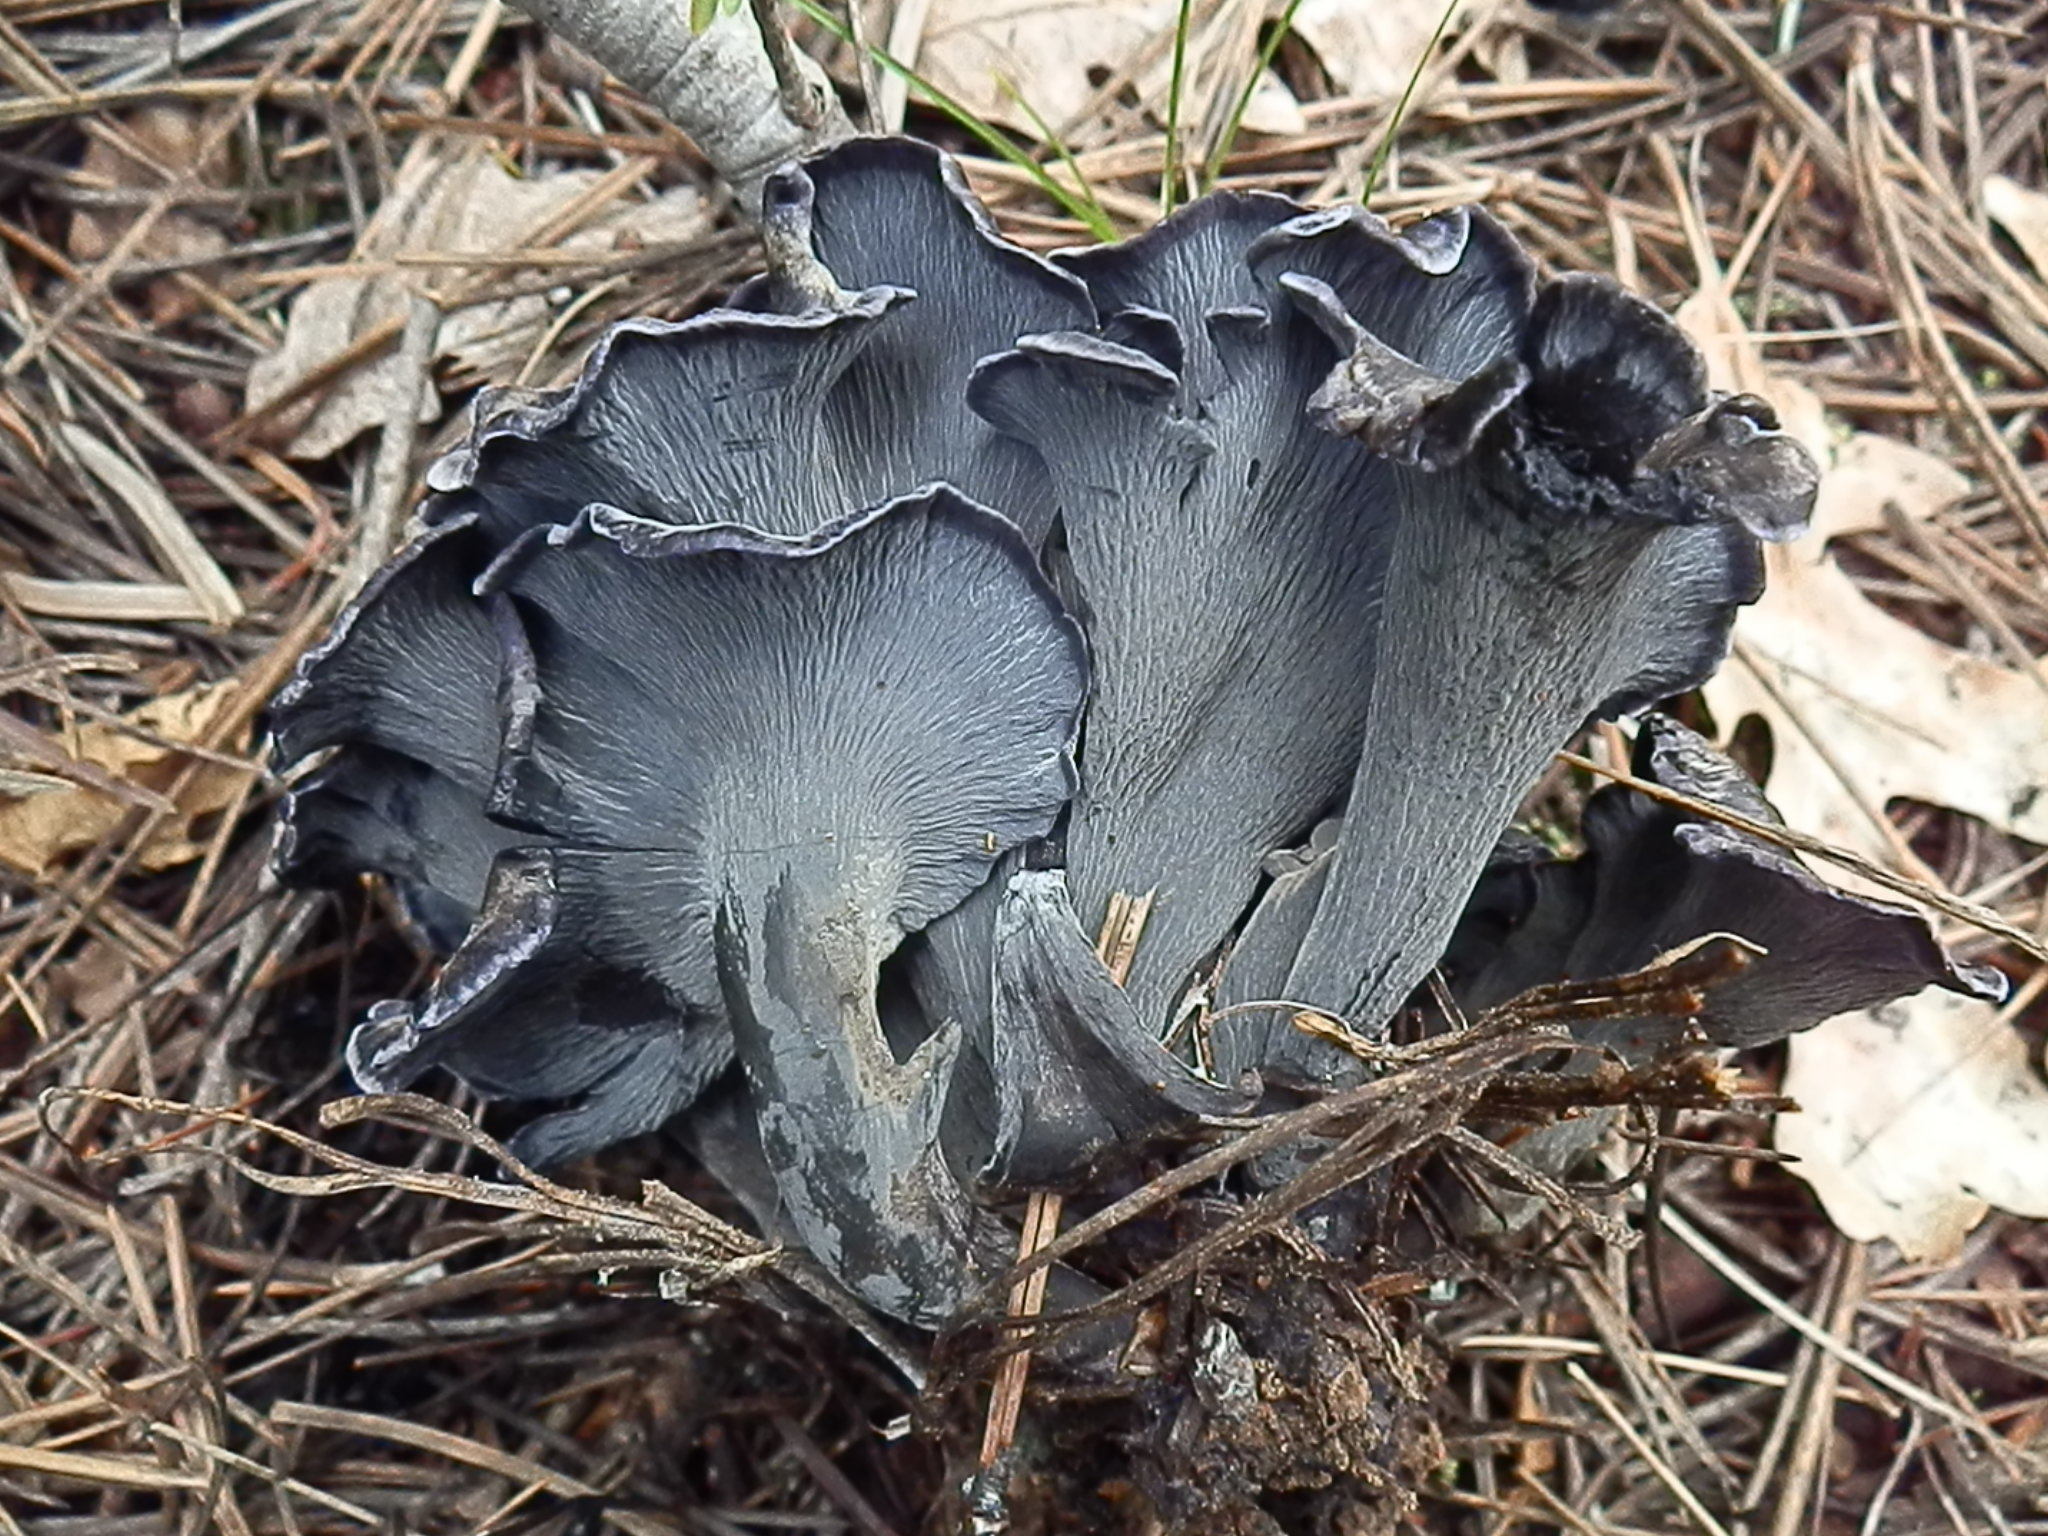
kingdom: Fungi
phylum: Basidiomycota
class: Agaricomycetes
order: Thelephorales
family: Thelephoraceae
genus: Polyozellus
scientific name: Polyozellus atrolazulinus
